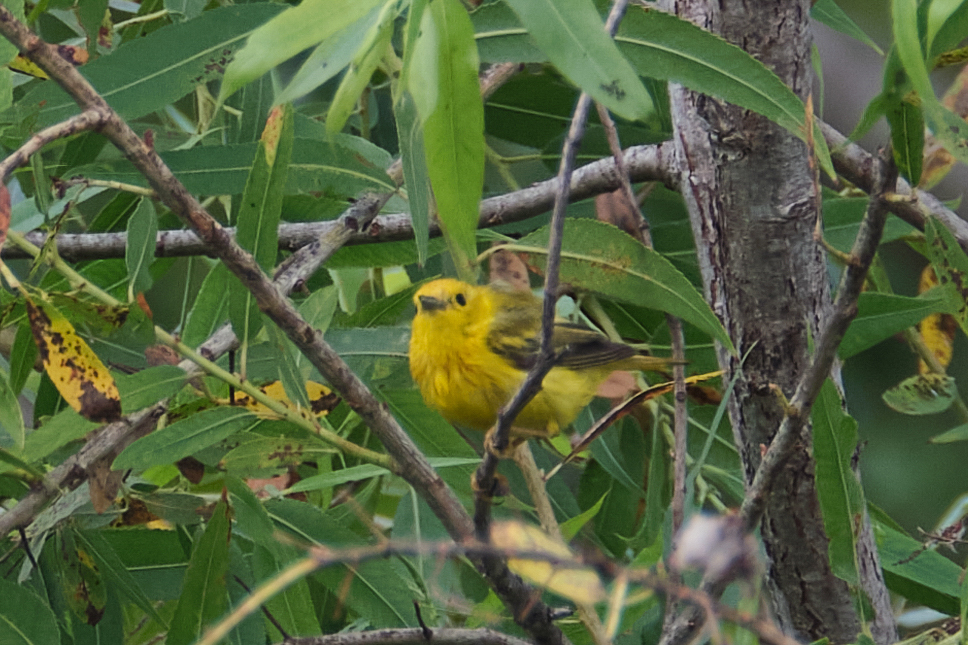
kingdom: Animalia
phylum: Chordata
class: Aves
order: Passeriformes
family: Parulidae
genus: Setophaga
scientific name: Setophaga petechia
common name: Yellow warbler
